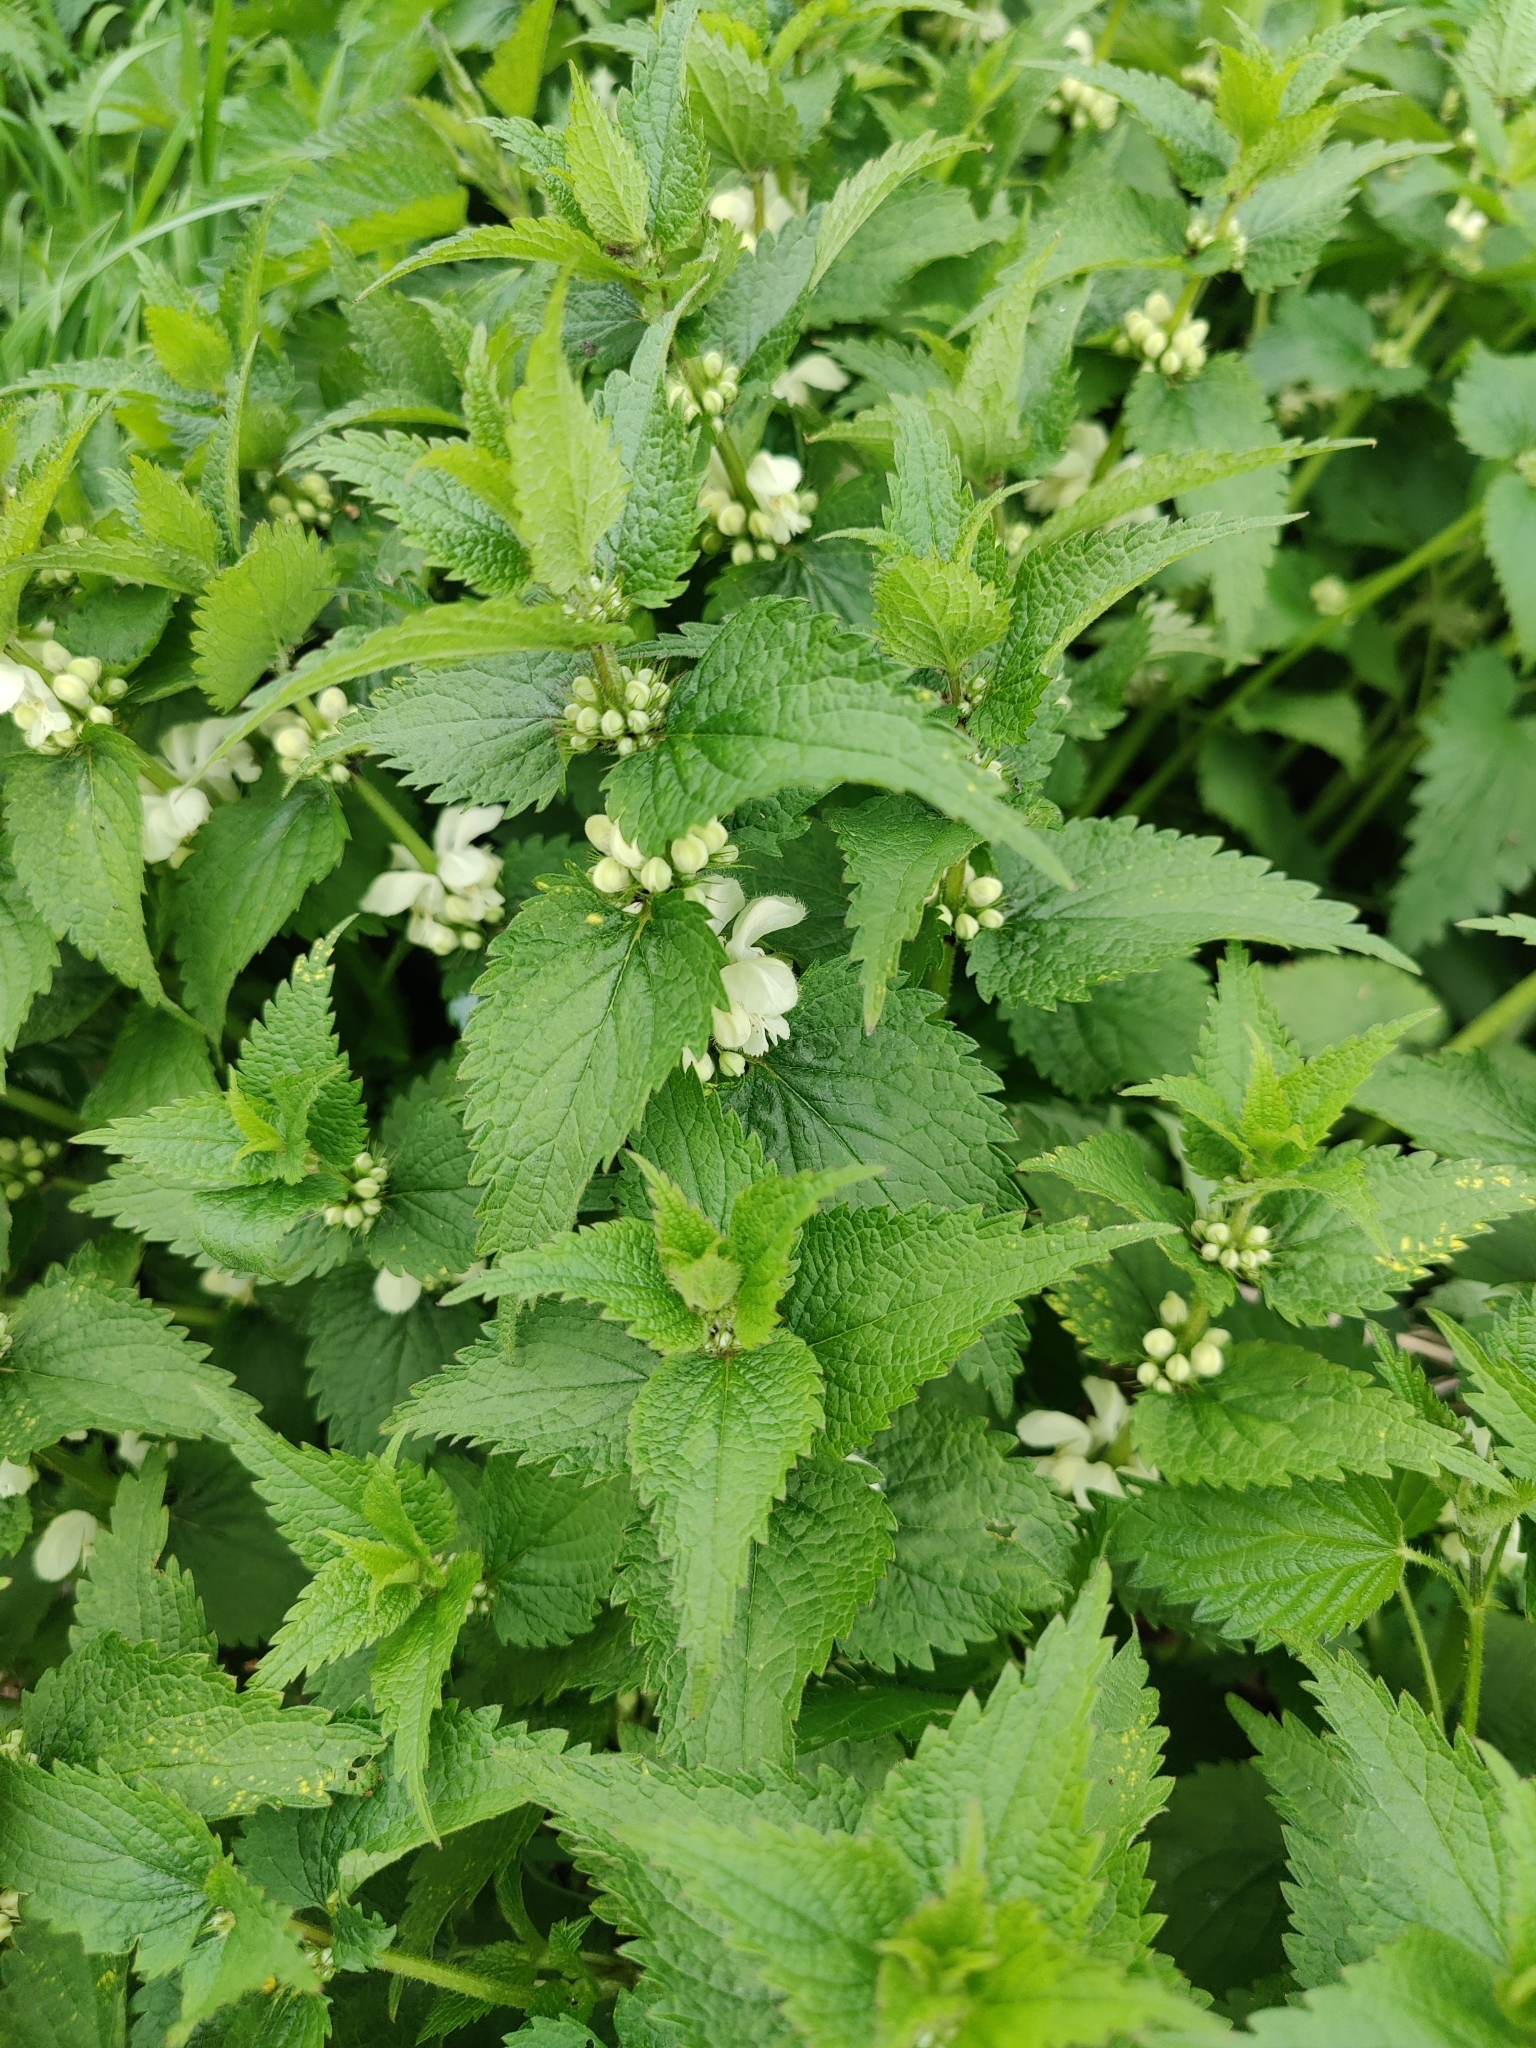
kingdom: Plantae
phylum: Tracheophyta
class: Magnoliopsida
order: Lamiales
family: Lamiaceae
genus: Lamium
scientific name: Lamium album
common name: White dead-nettle
